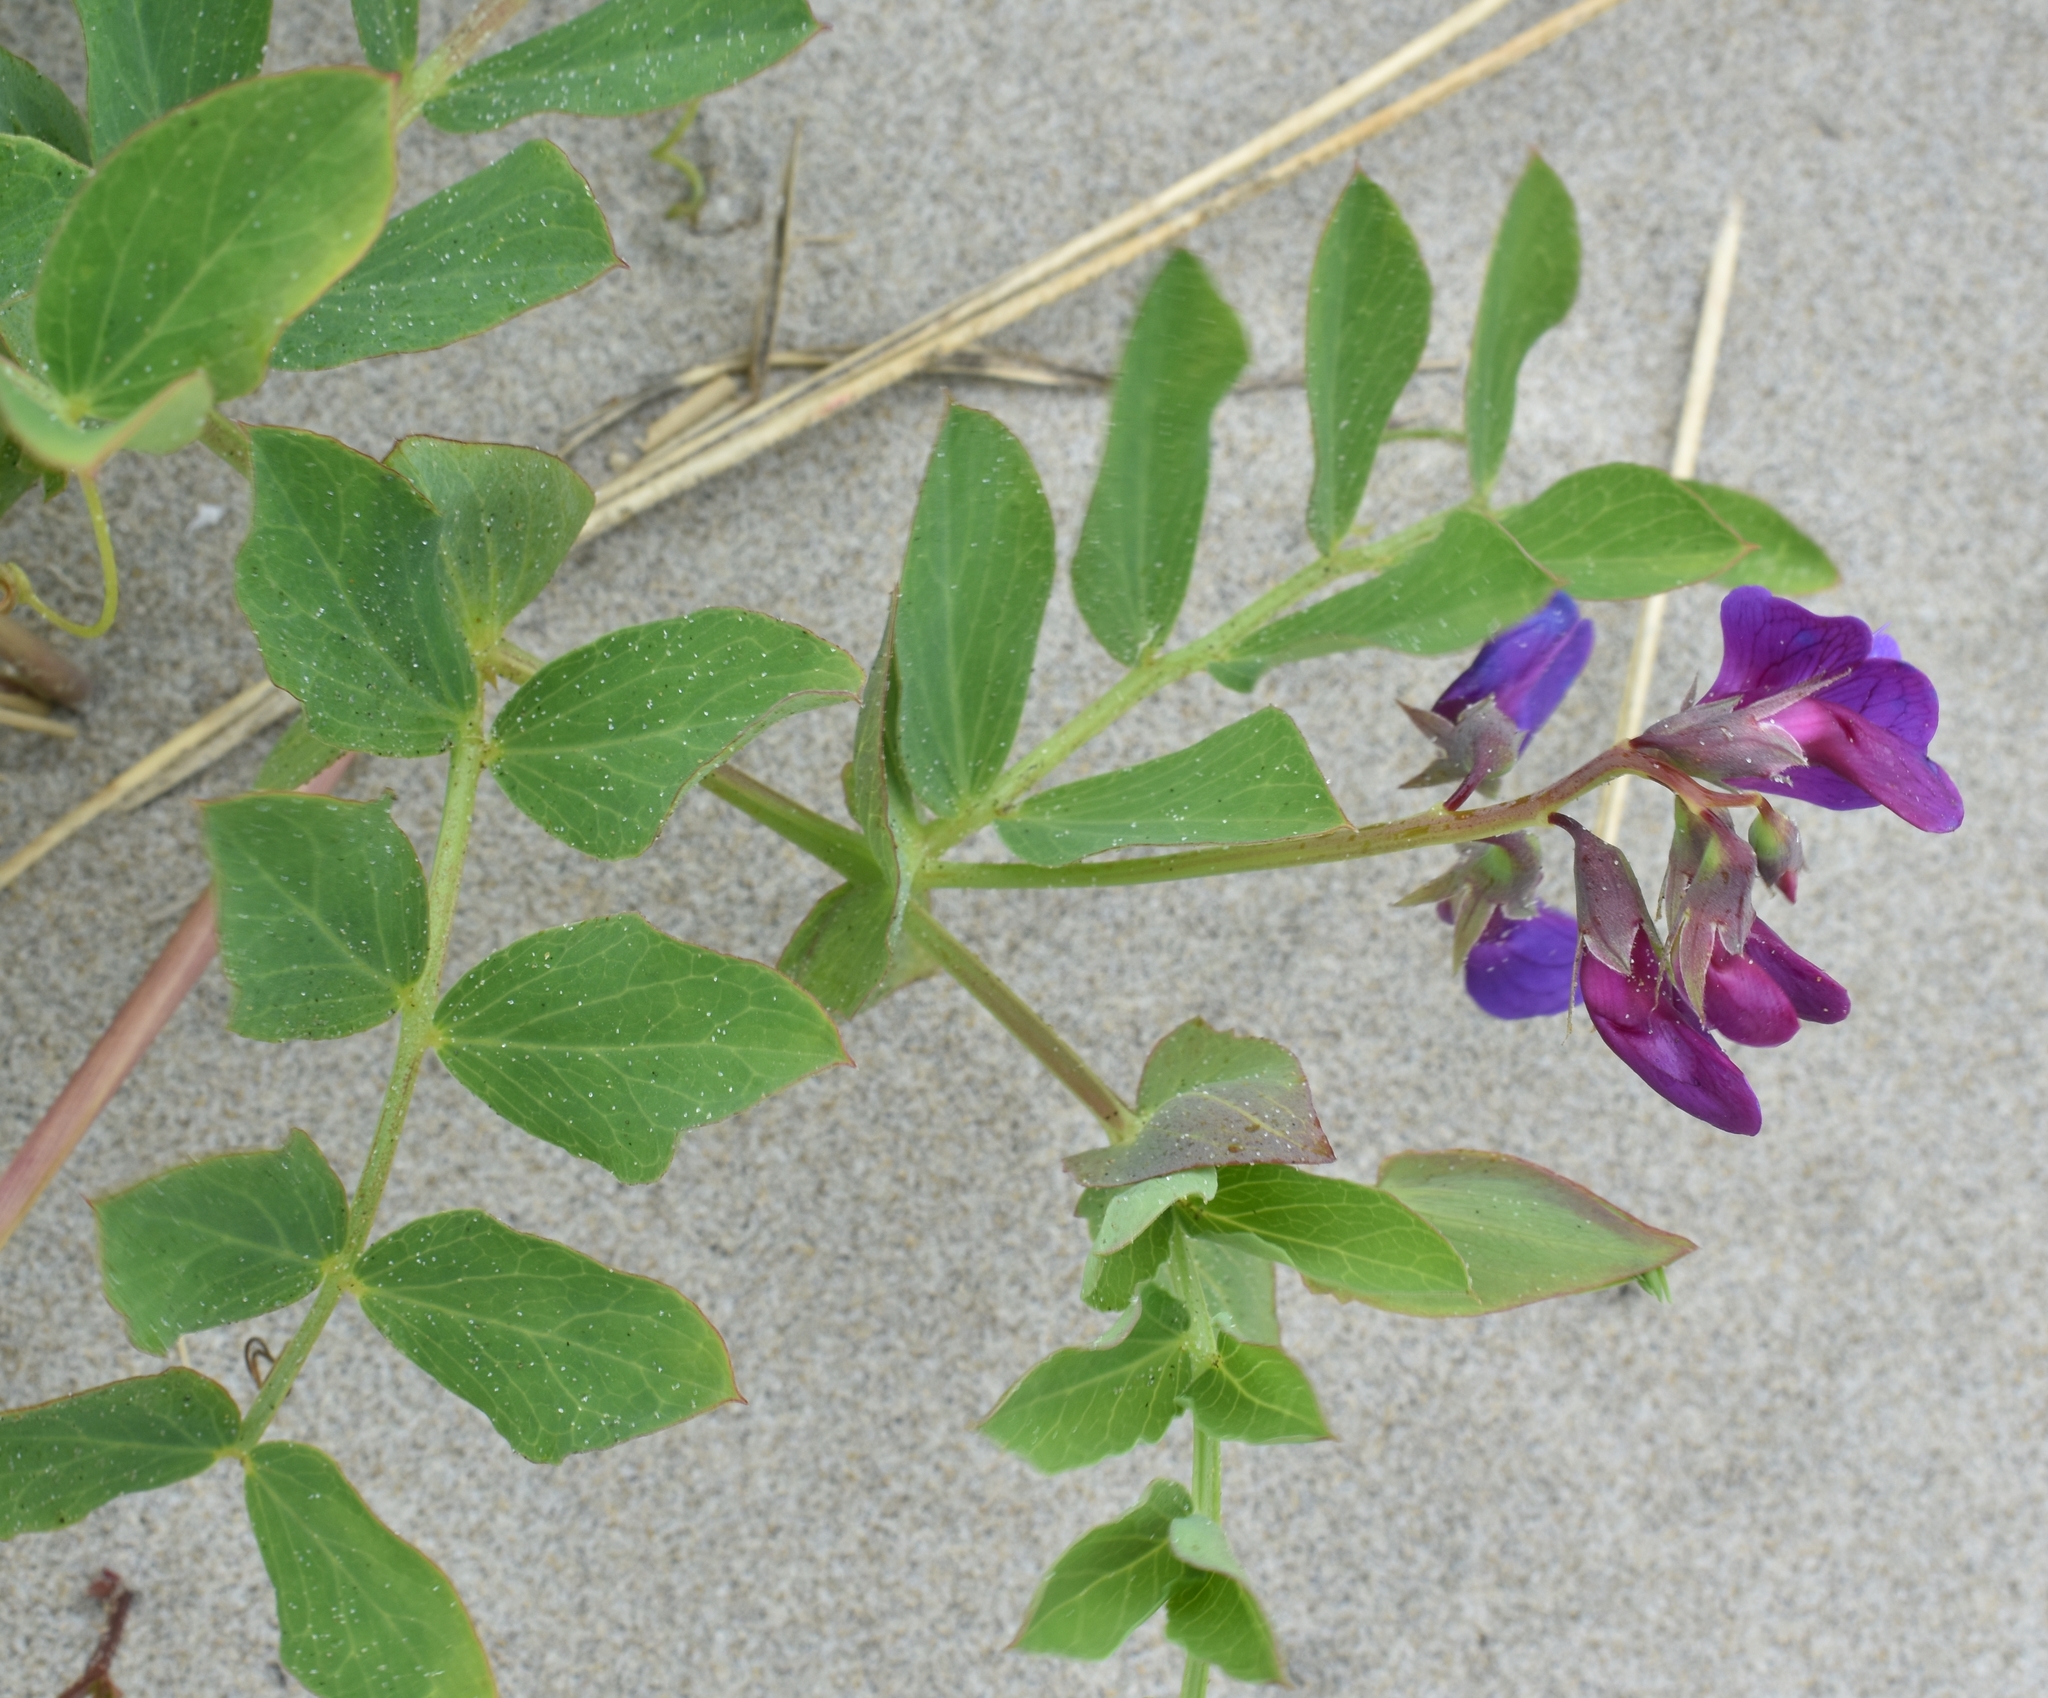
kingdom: Plantae
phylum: Tracheophyta
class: Magnoliopsida
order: Fabales
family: Fabaceae
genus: Lathyrus
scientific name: Lathyrus japonicus
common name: Sea pea
